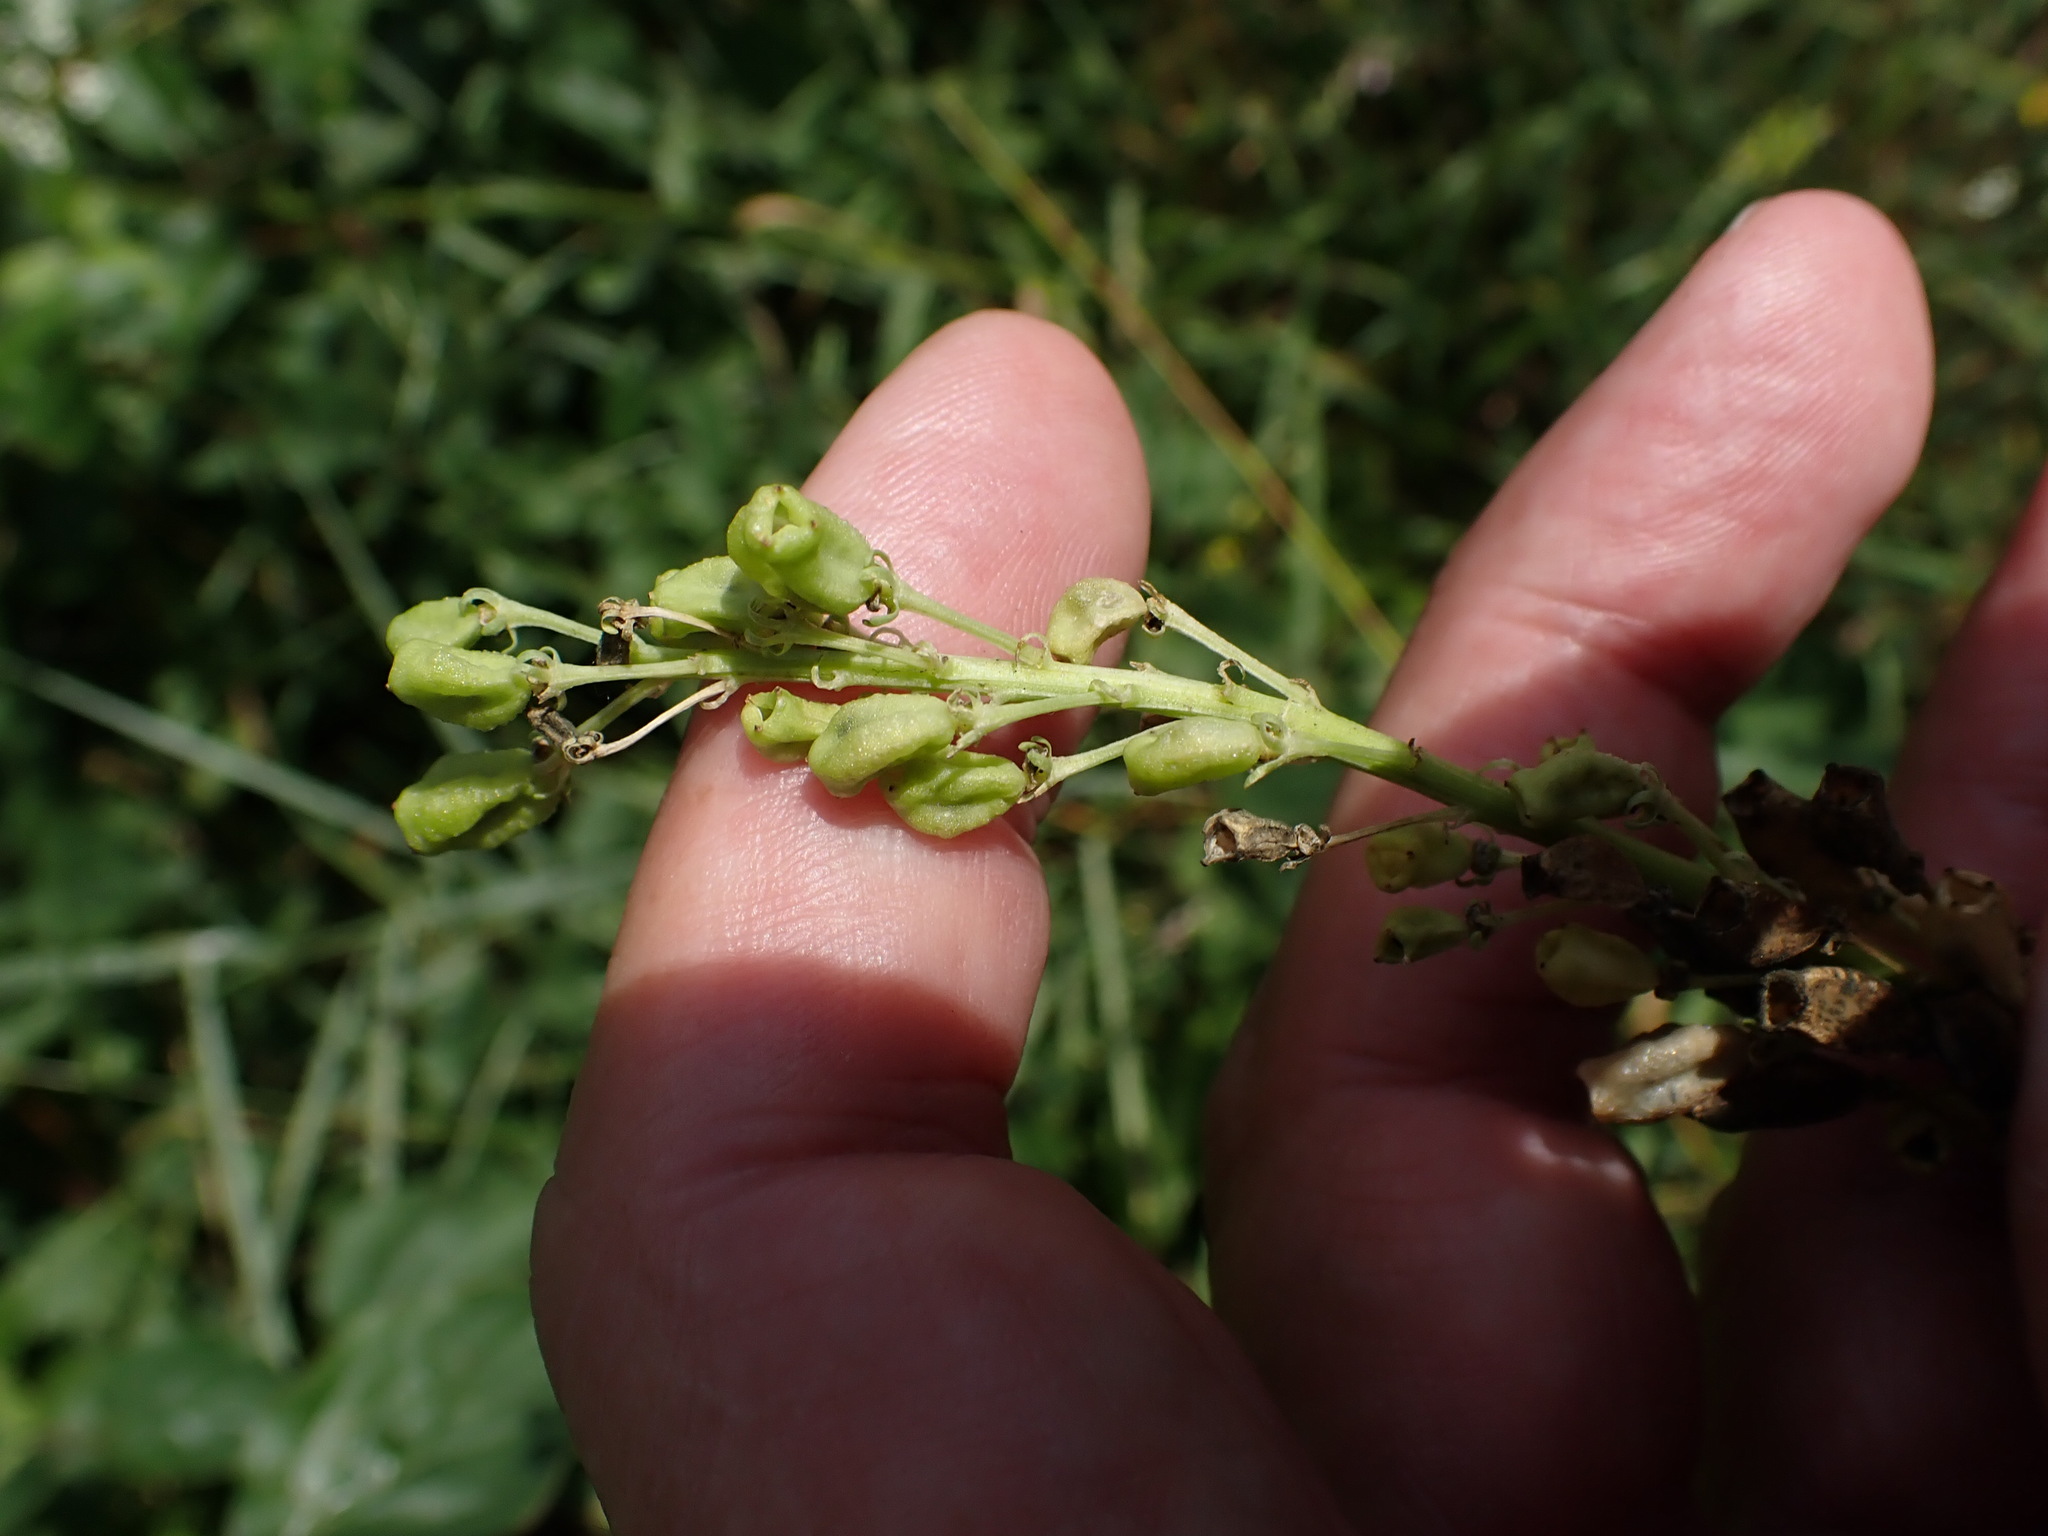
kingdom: Plantae
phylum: Tracheophyta
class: Magnoliopsida
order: Brassicales
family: Resedaceae
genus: Reseda
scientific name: Reseda lutea
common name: Wild mignonette
